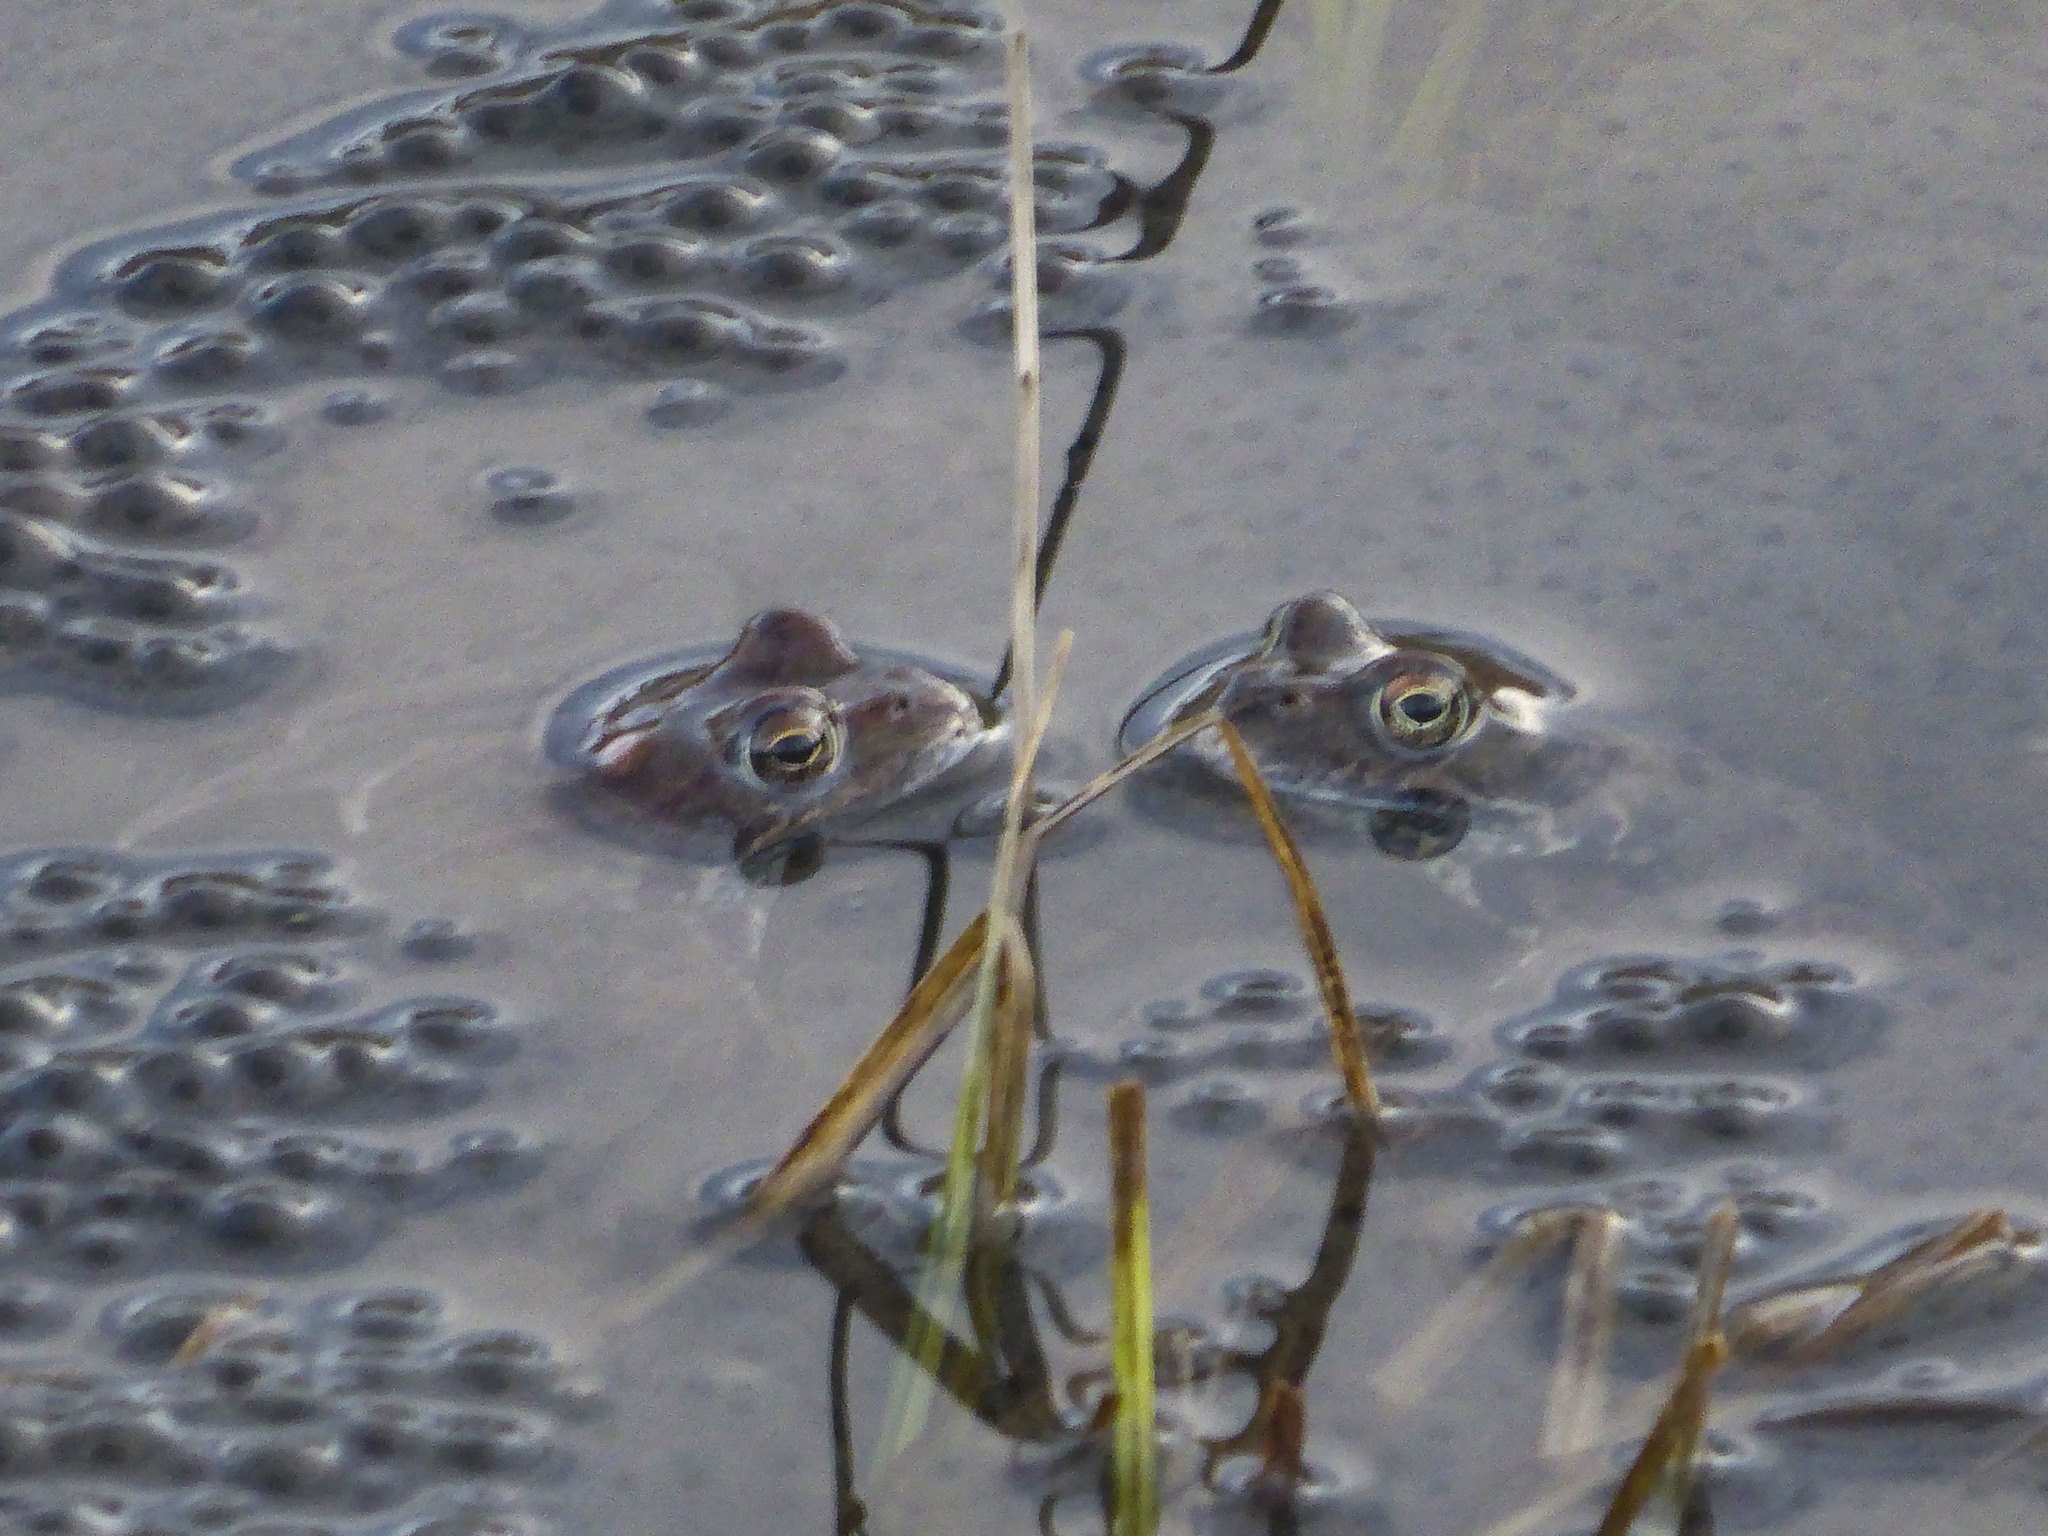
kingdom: Animalia
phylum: Chordata
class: Amphibia
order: Anura
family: Ranidae
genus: Rana
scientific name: Rana temporaria
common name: Common frog
